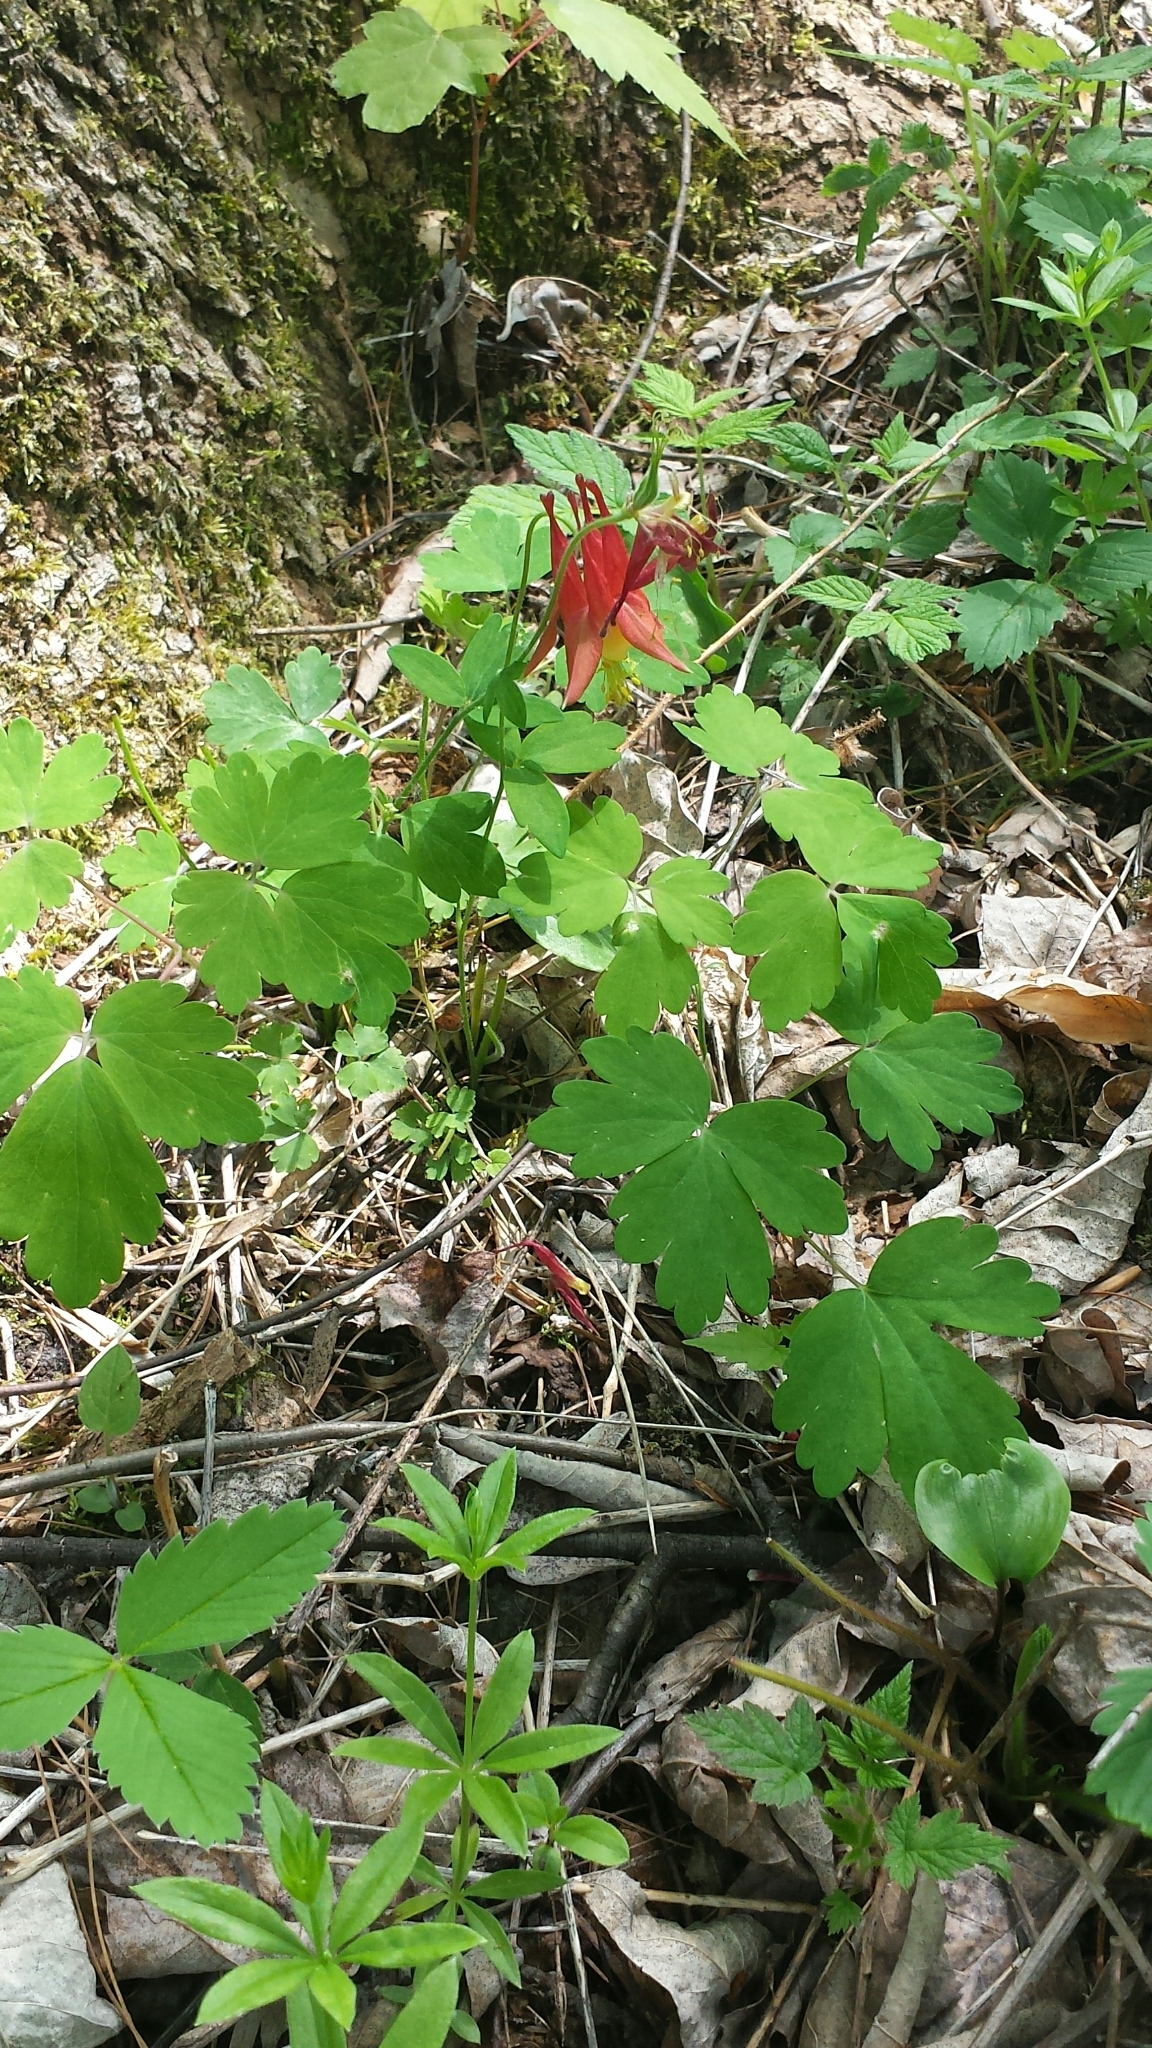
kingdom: Plantae
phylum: Tracheophyta
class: Magnoliopsida
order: Ranunculales
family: Ranunculaceae
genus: Aquilegia
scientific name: Aquilegia canadensis
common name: American columbine
